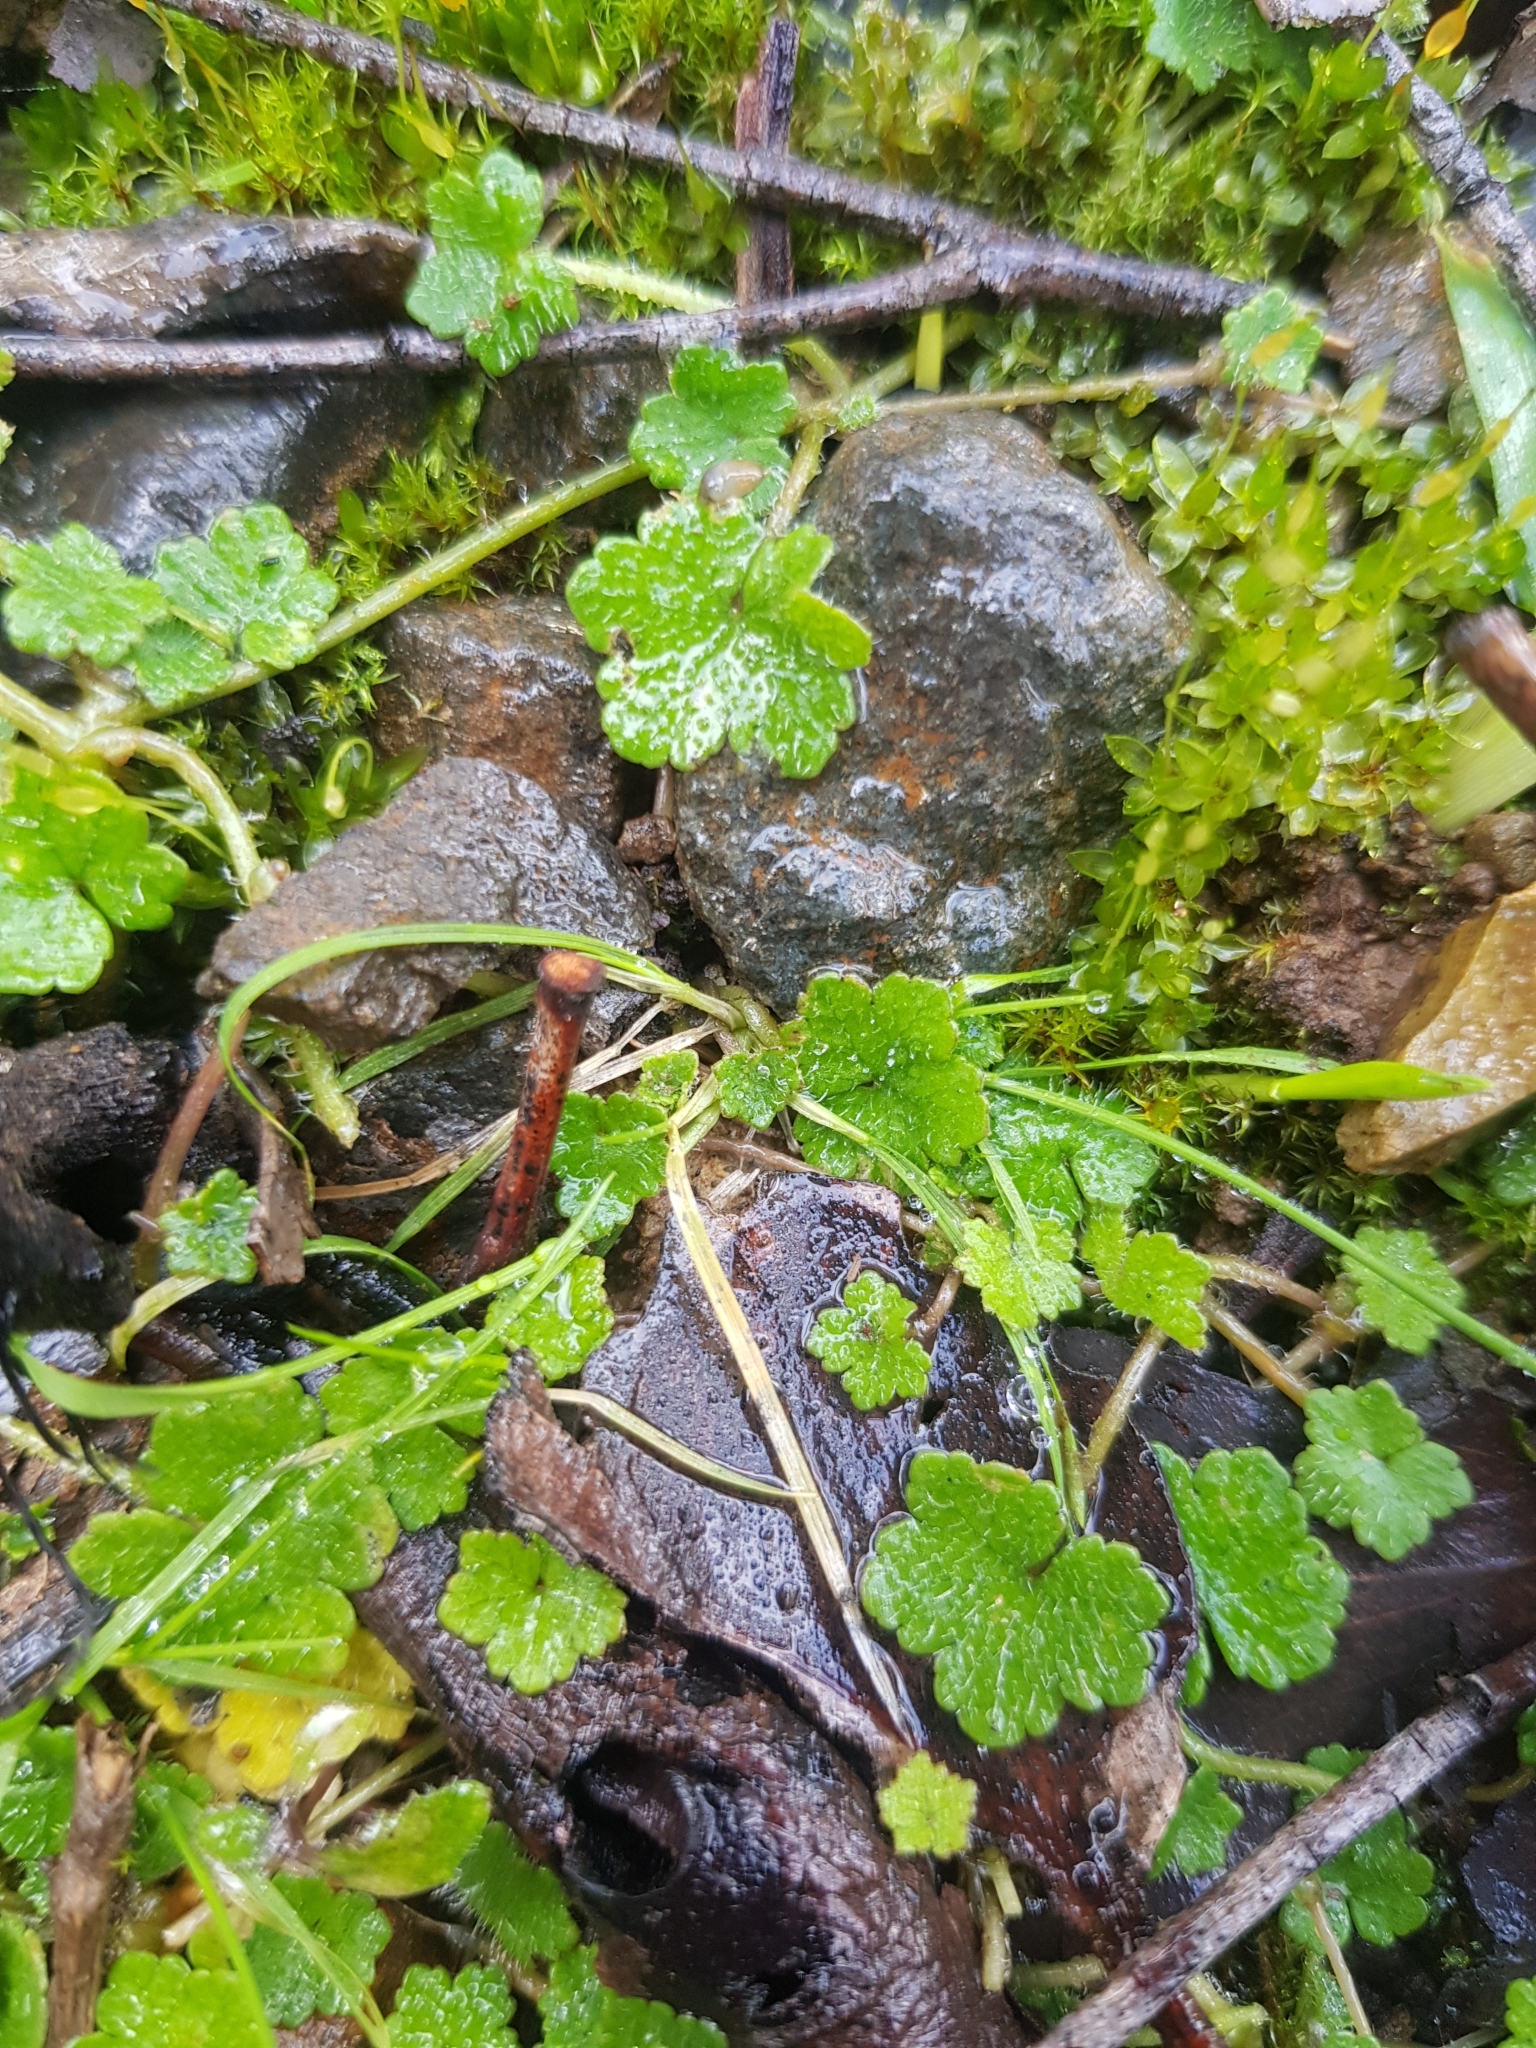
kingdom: Plantae
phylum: Tracheophyta
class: Magnoliopsida
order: Apiales
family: Araliaceae
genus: Hydrocotyle
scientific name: Hydrocotyle hirta
